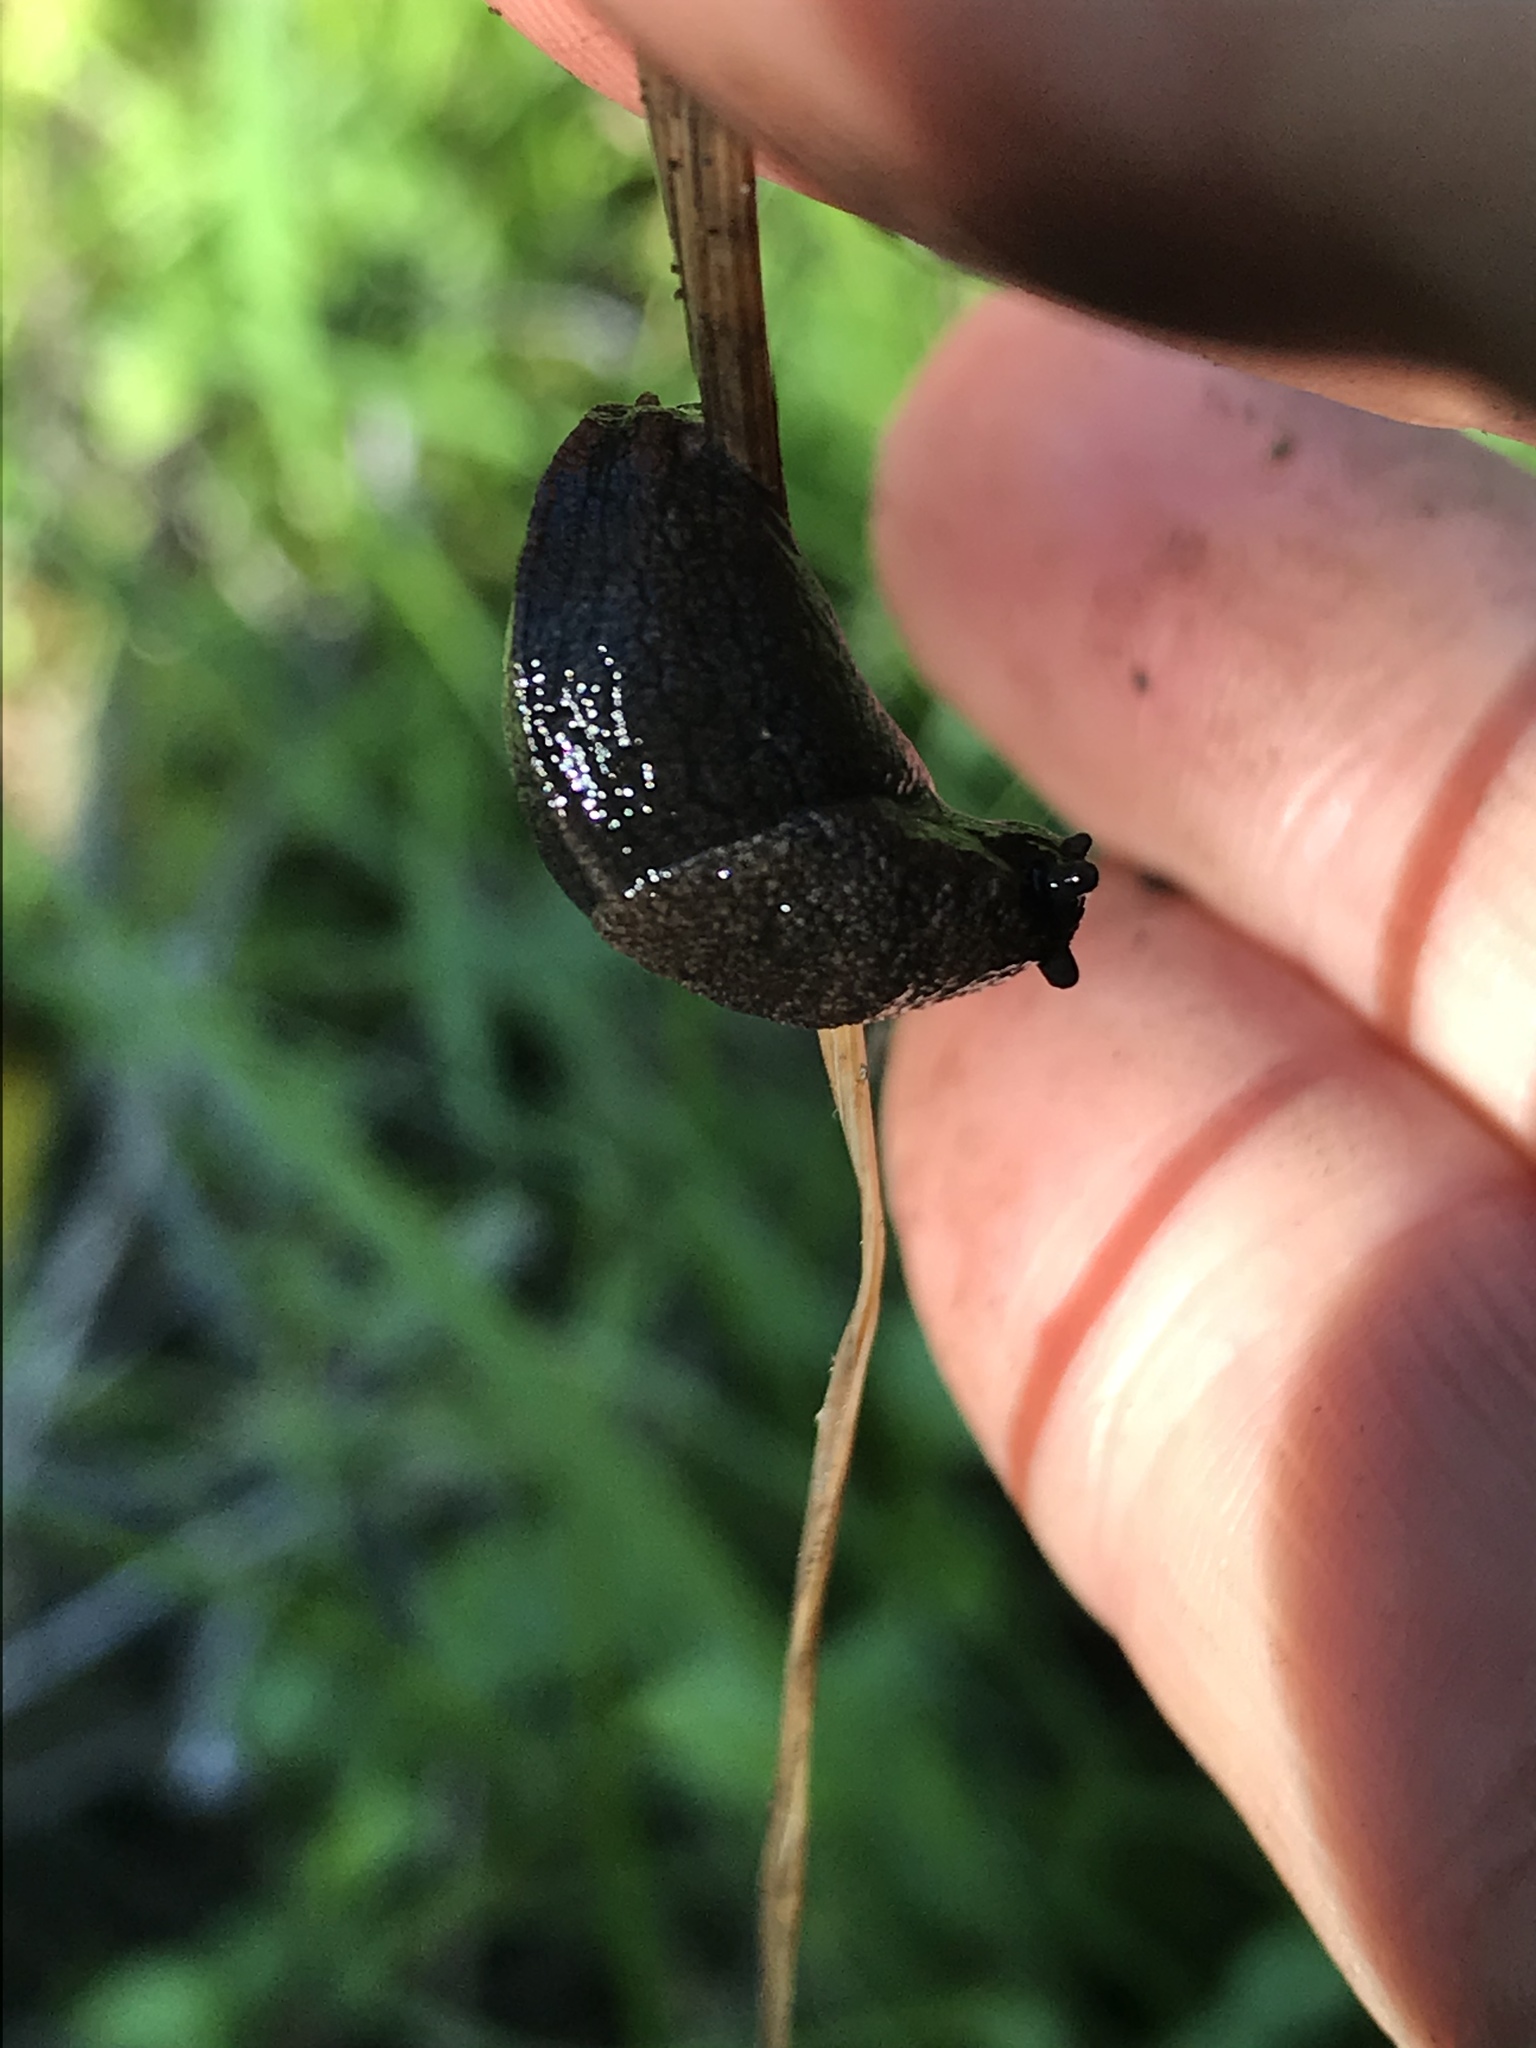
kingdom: Animalia
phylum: Mollusca
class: Gastropoda
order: Stylommatophora
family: Milacidae
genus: Milax
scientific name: Milax gagates
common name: Greenhouse slug
